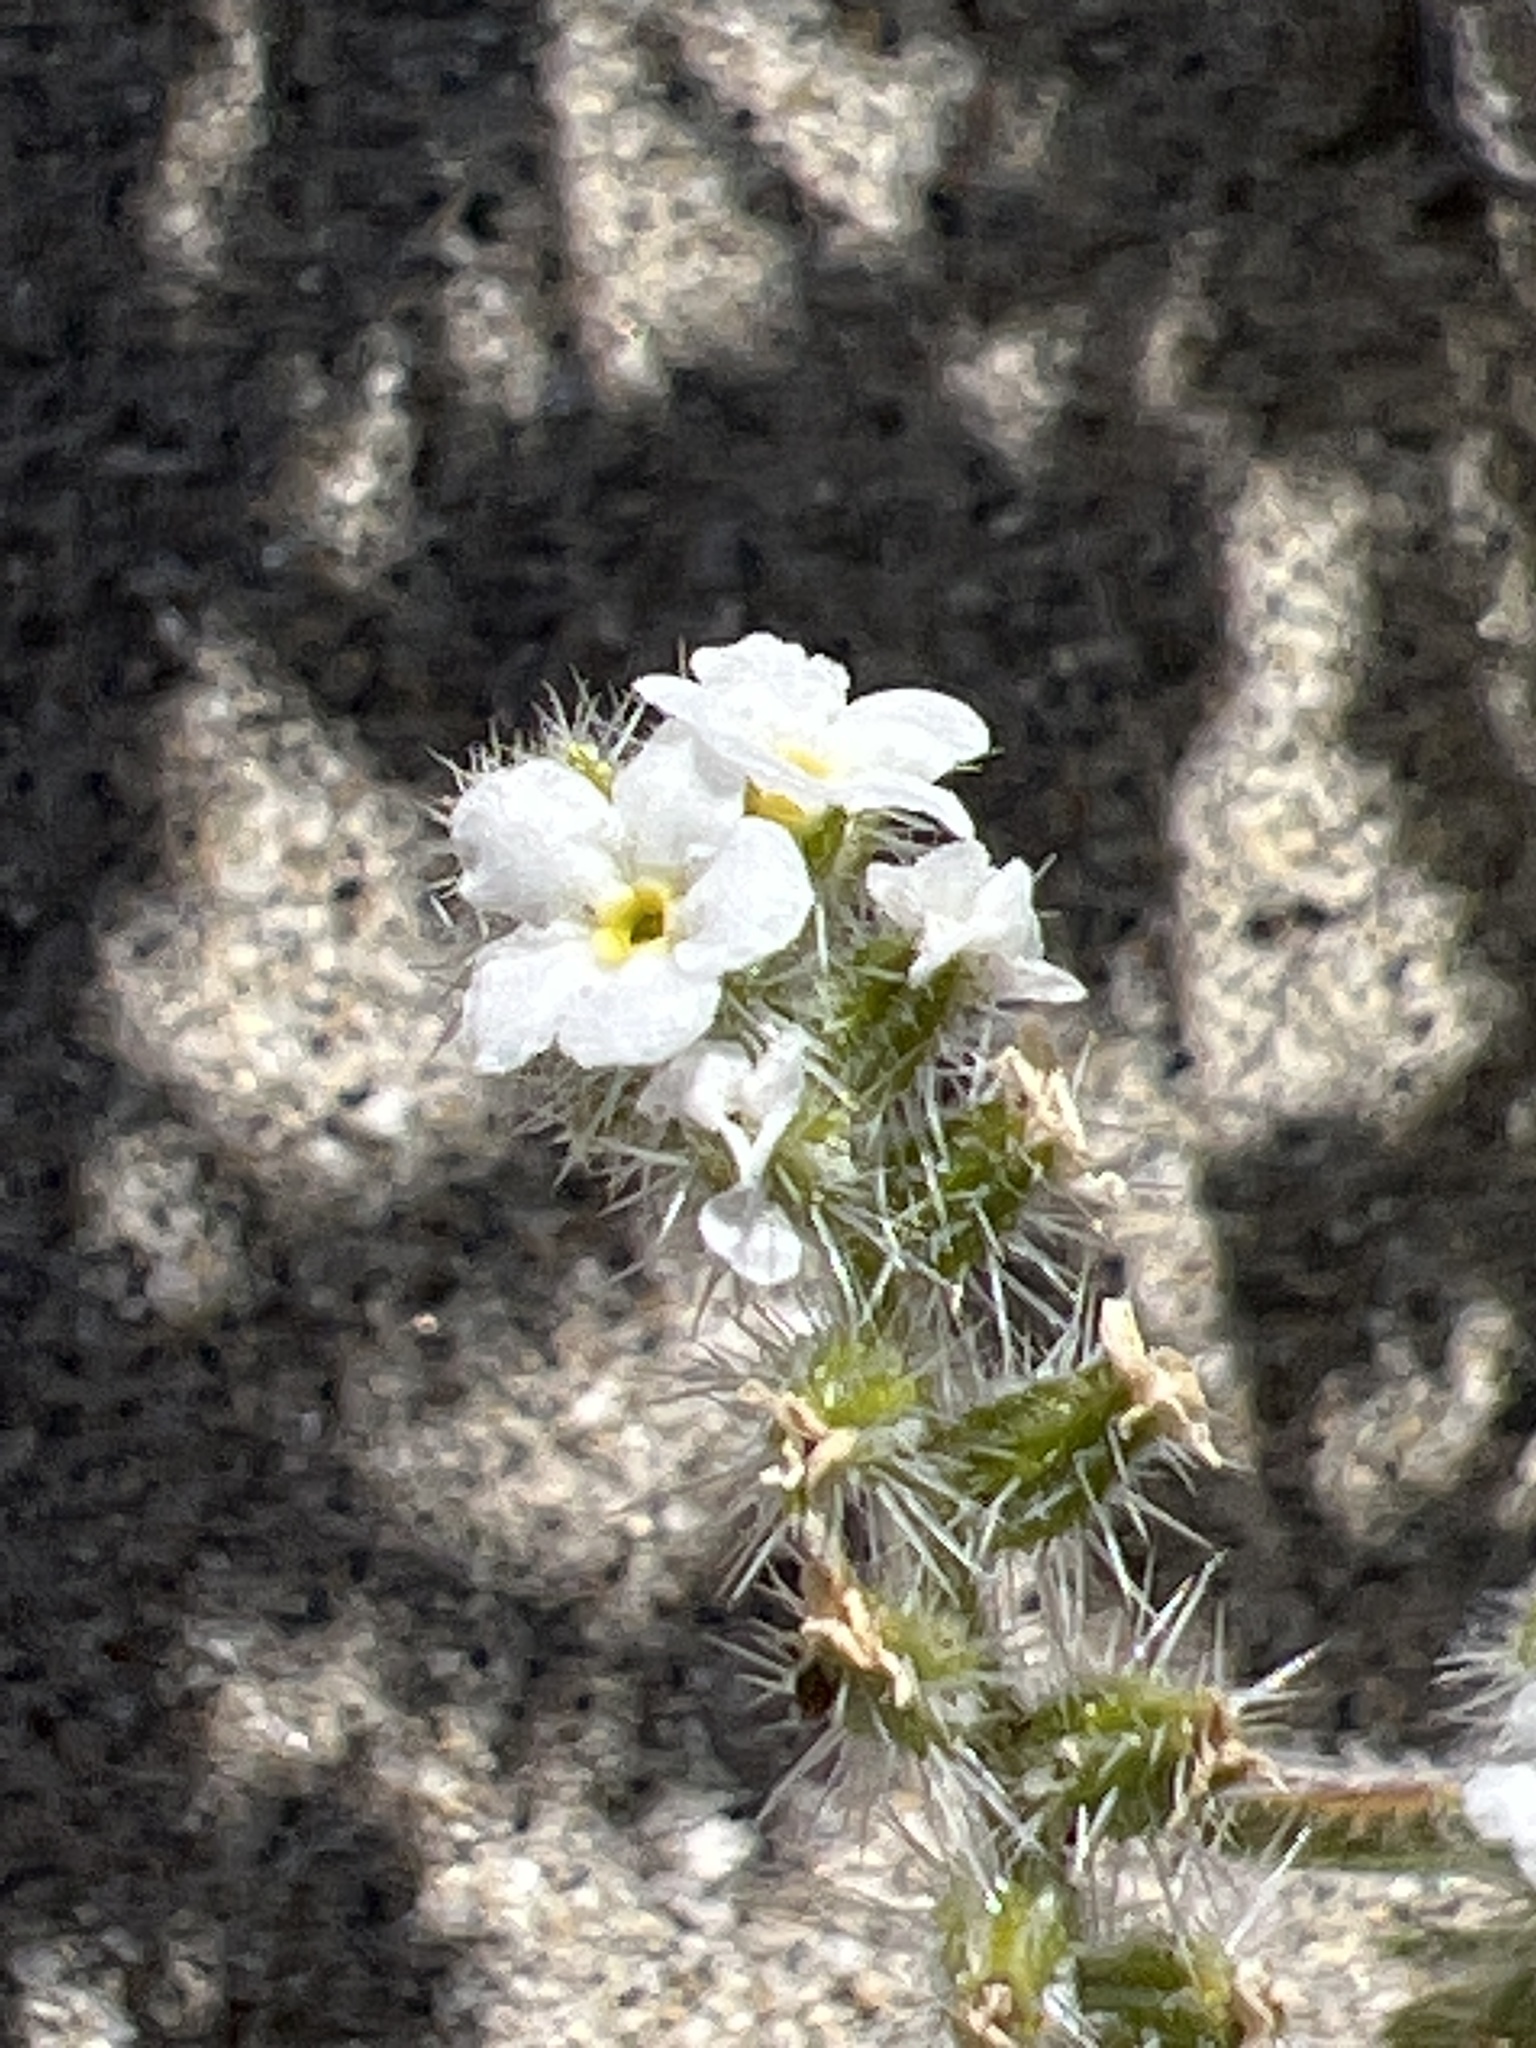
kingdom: Plantae
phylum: Tracheophyta
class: Magnoliopsida
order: Boraginales
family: Boraginaceae
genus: Johnstonella
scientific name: Johnstonella angustifolia
